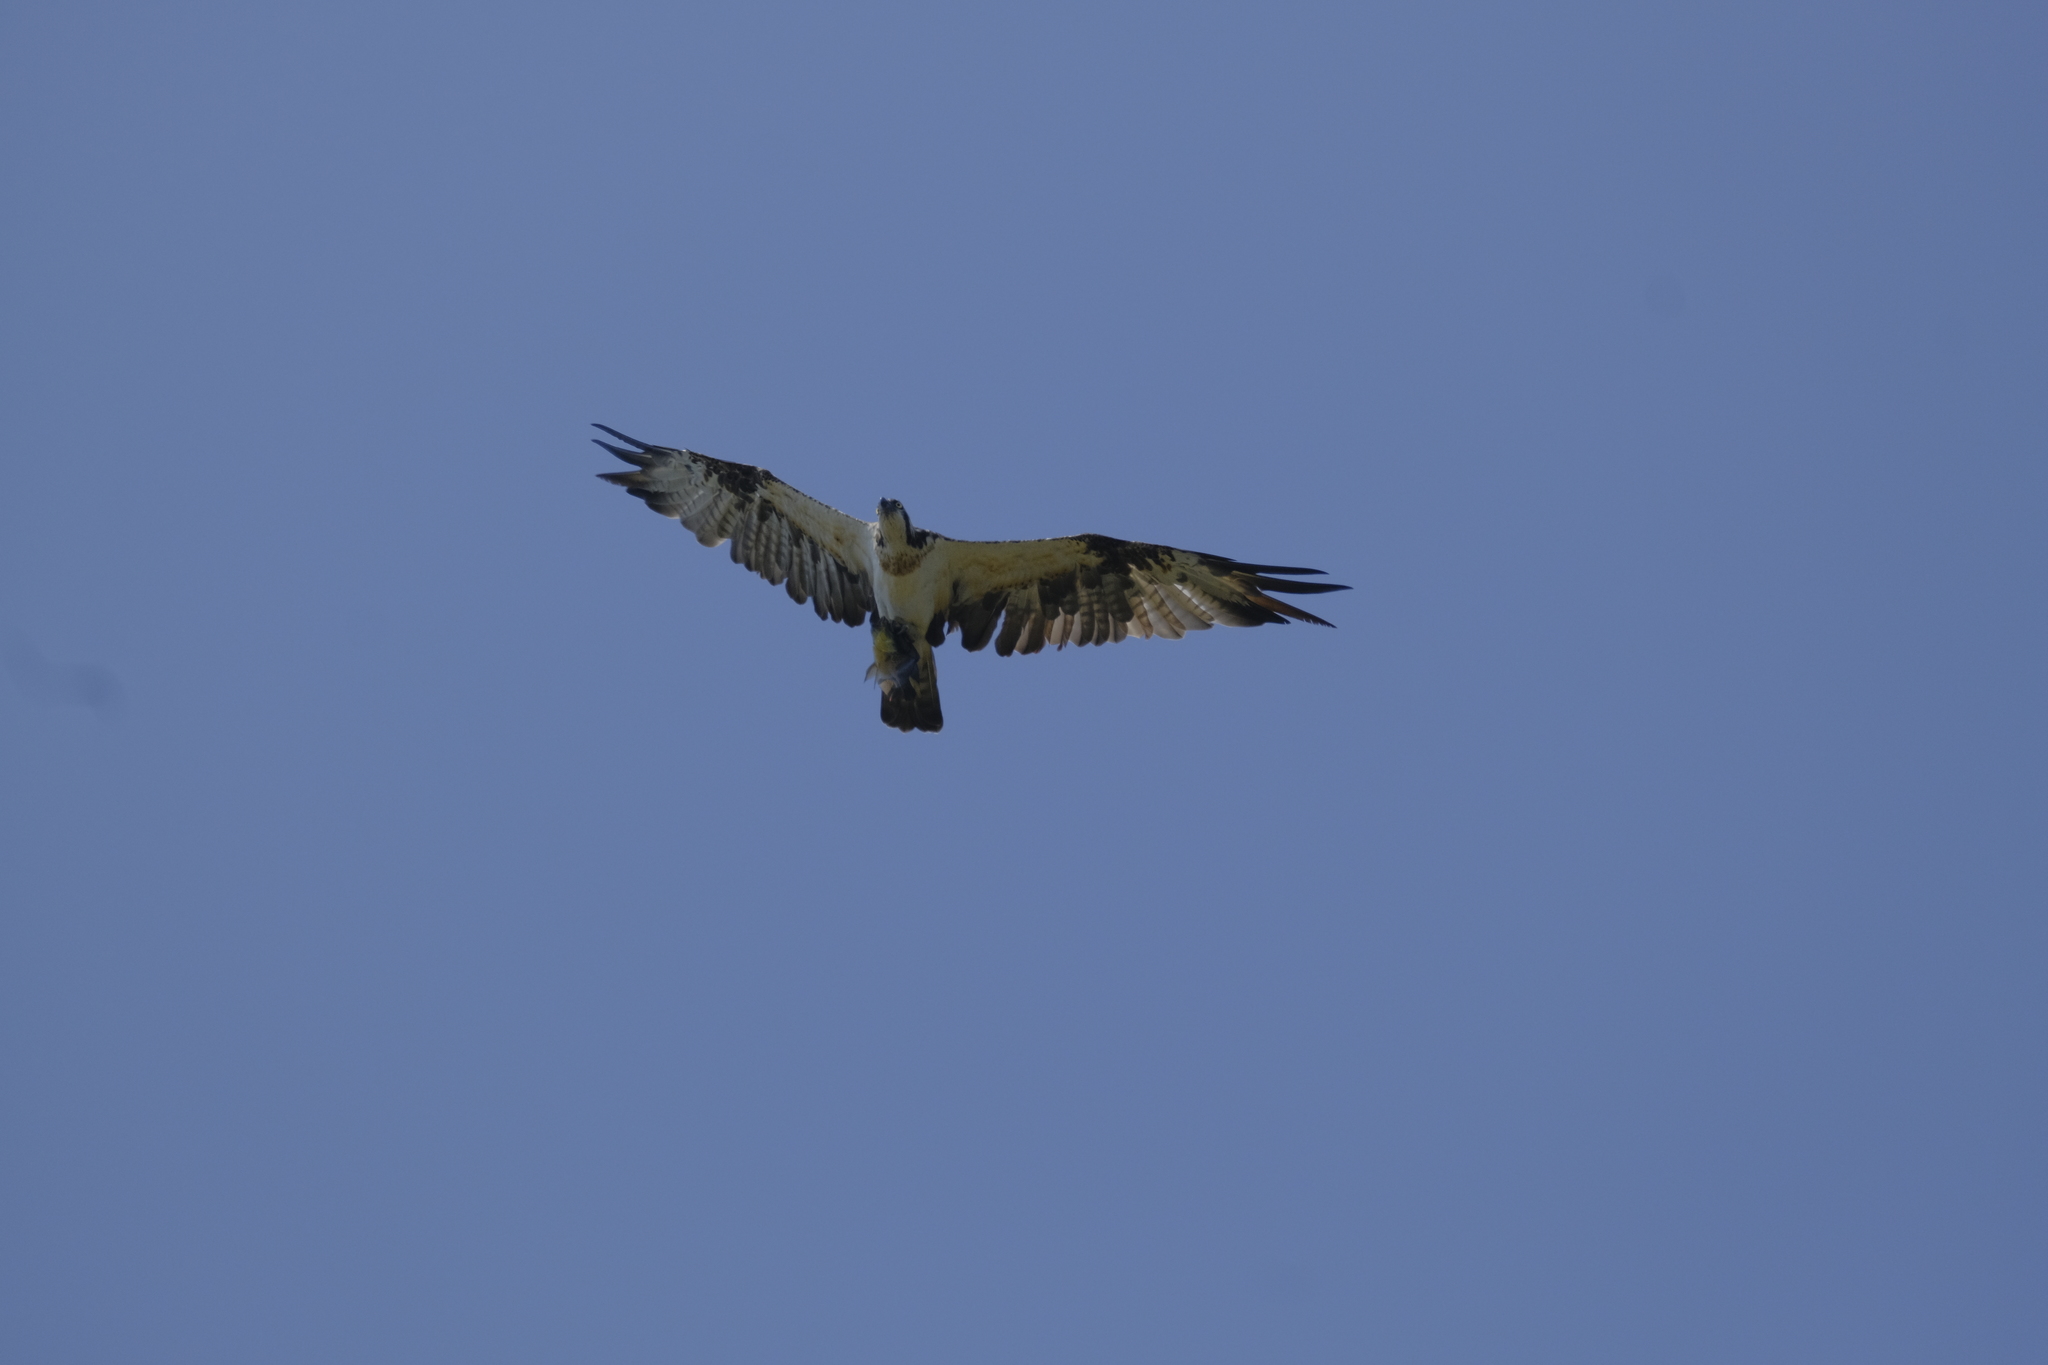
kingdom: Animalia
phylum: Chordata
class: Aves
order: Accipitriformes
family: Pandionidae
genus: Pandion
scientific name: Pandion haliaetus
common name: Osprey
